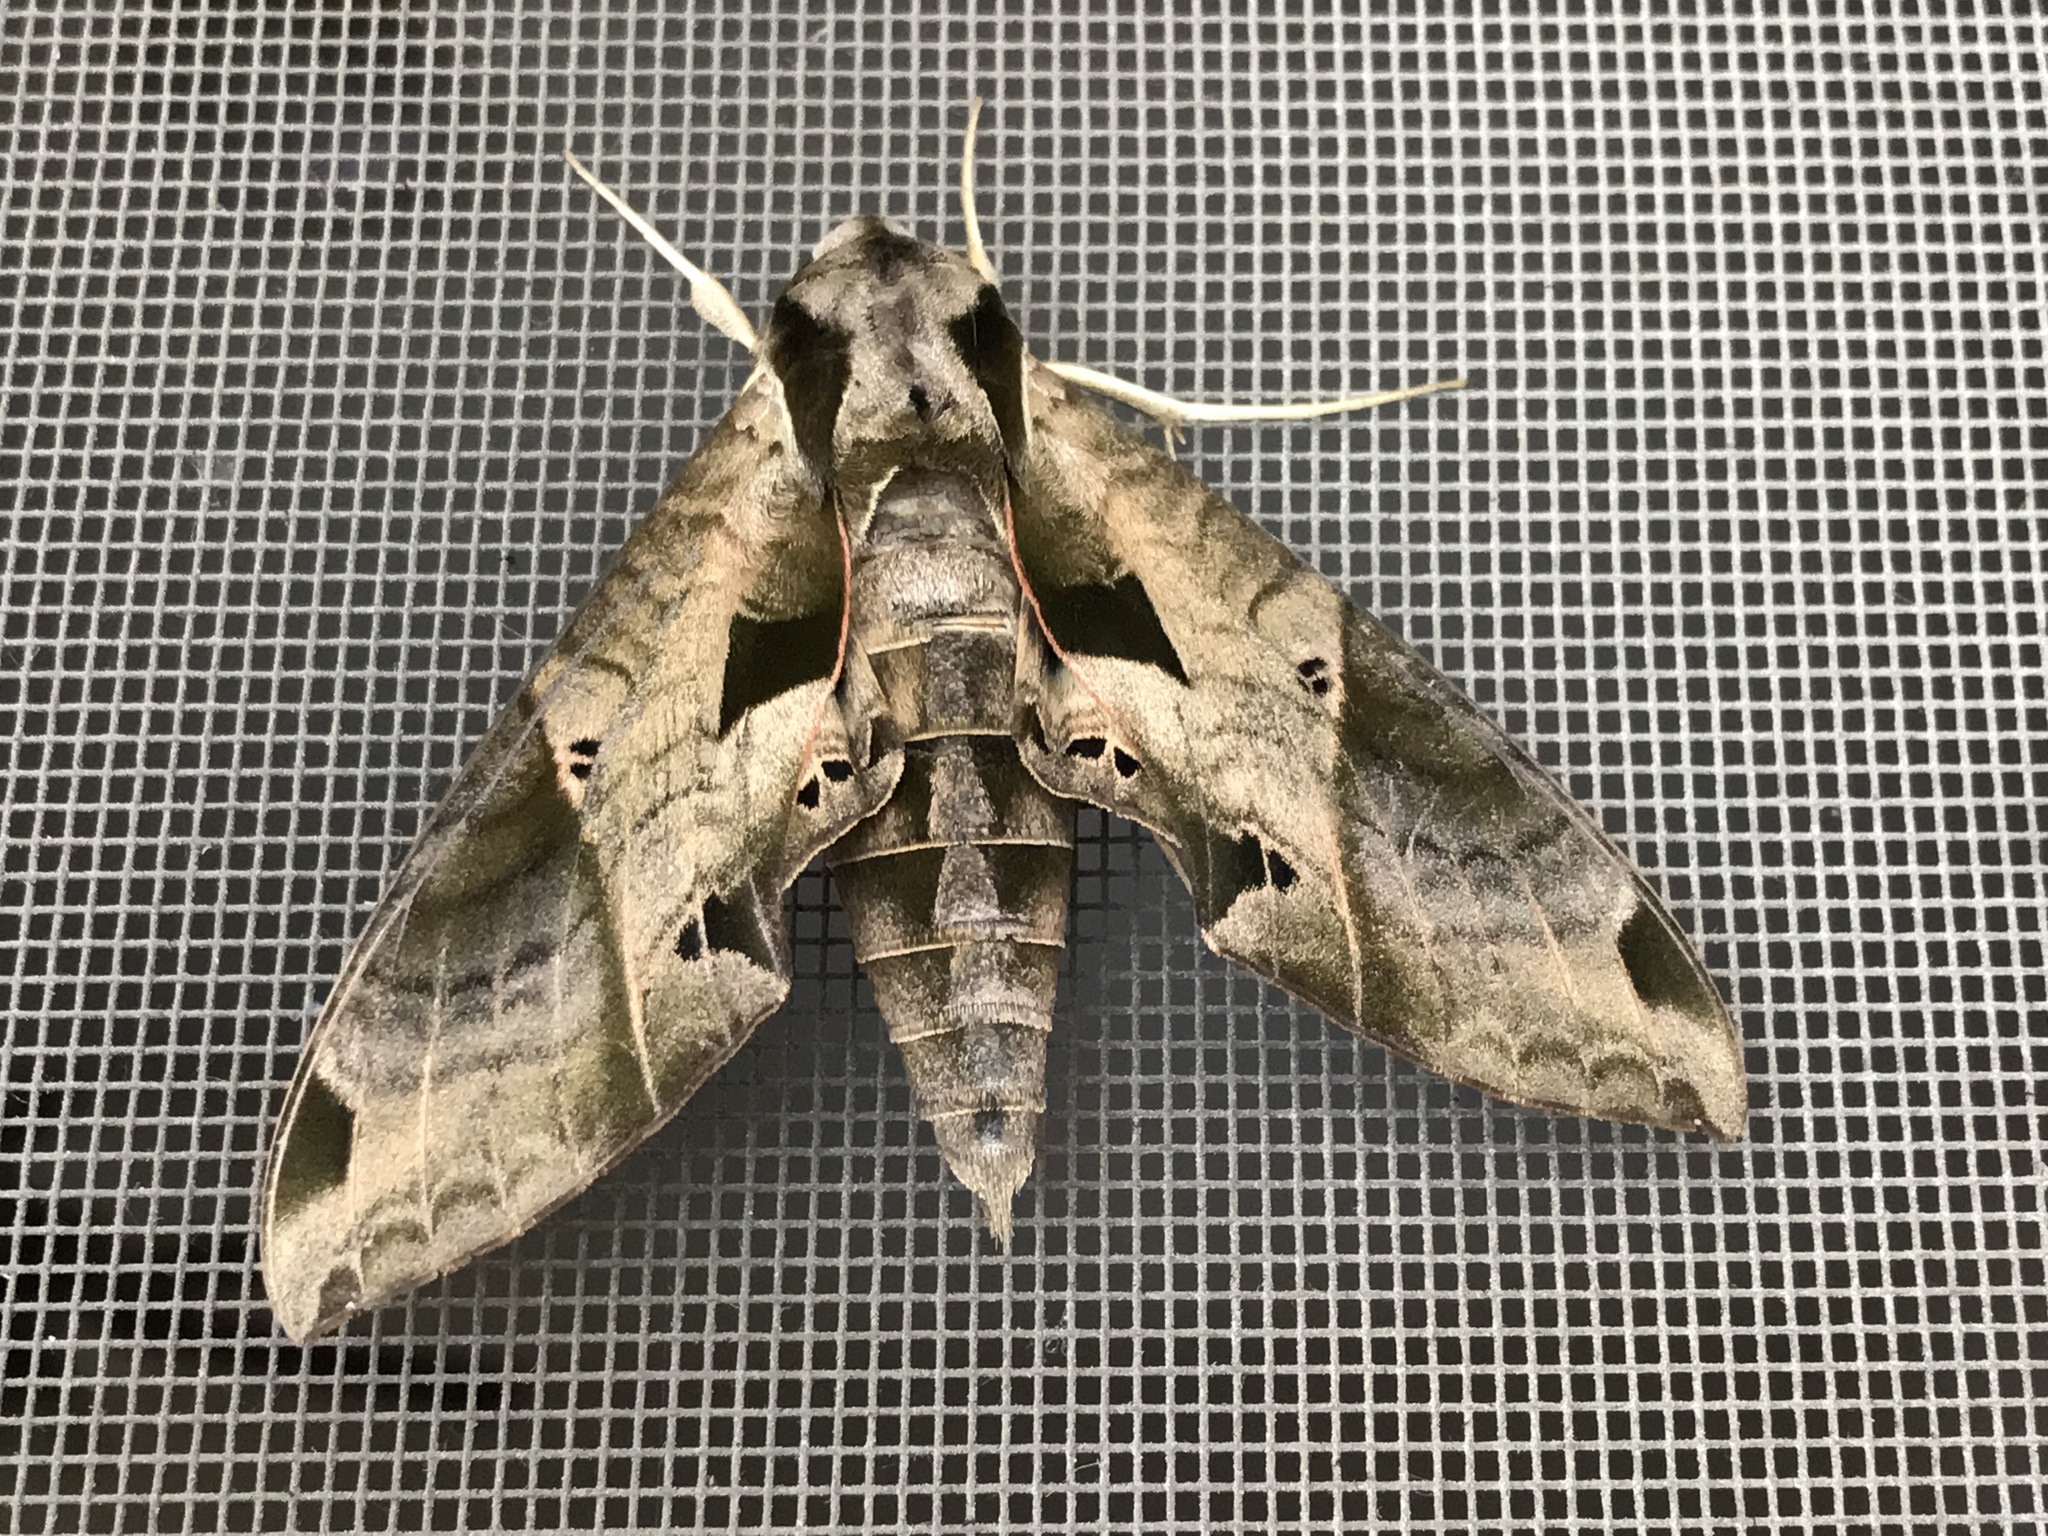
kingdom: Animalia
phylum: Arthropoda
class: Insecta
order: Lepidoptera
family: Sphingidae
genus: Eumorpha
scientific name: Eumorpha satellitia
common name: Satellite sphinx
